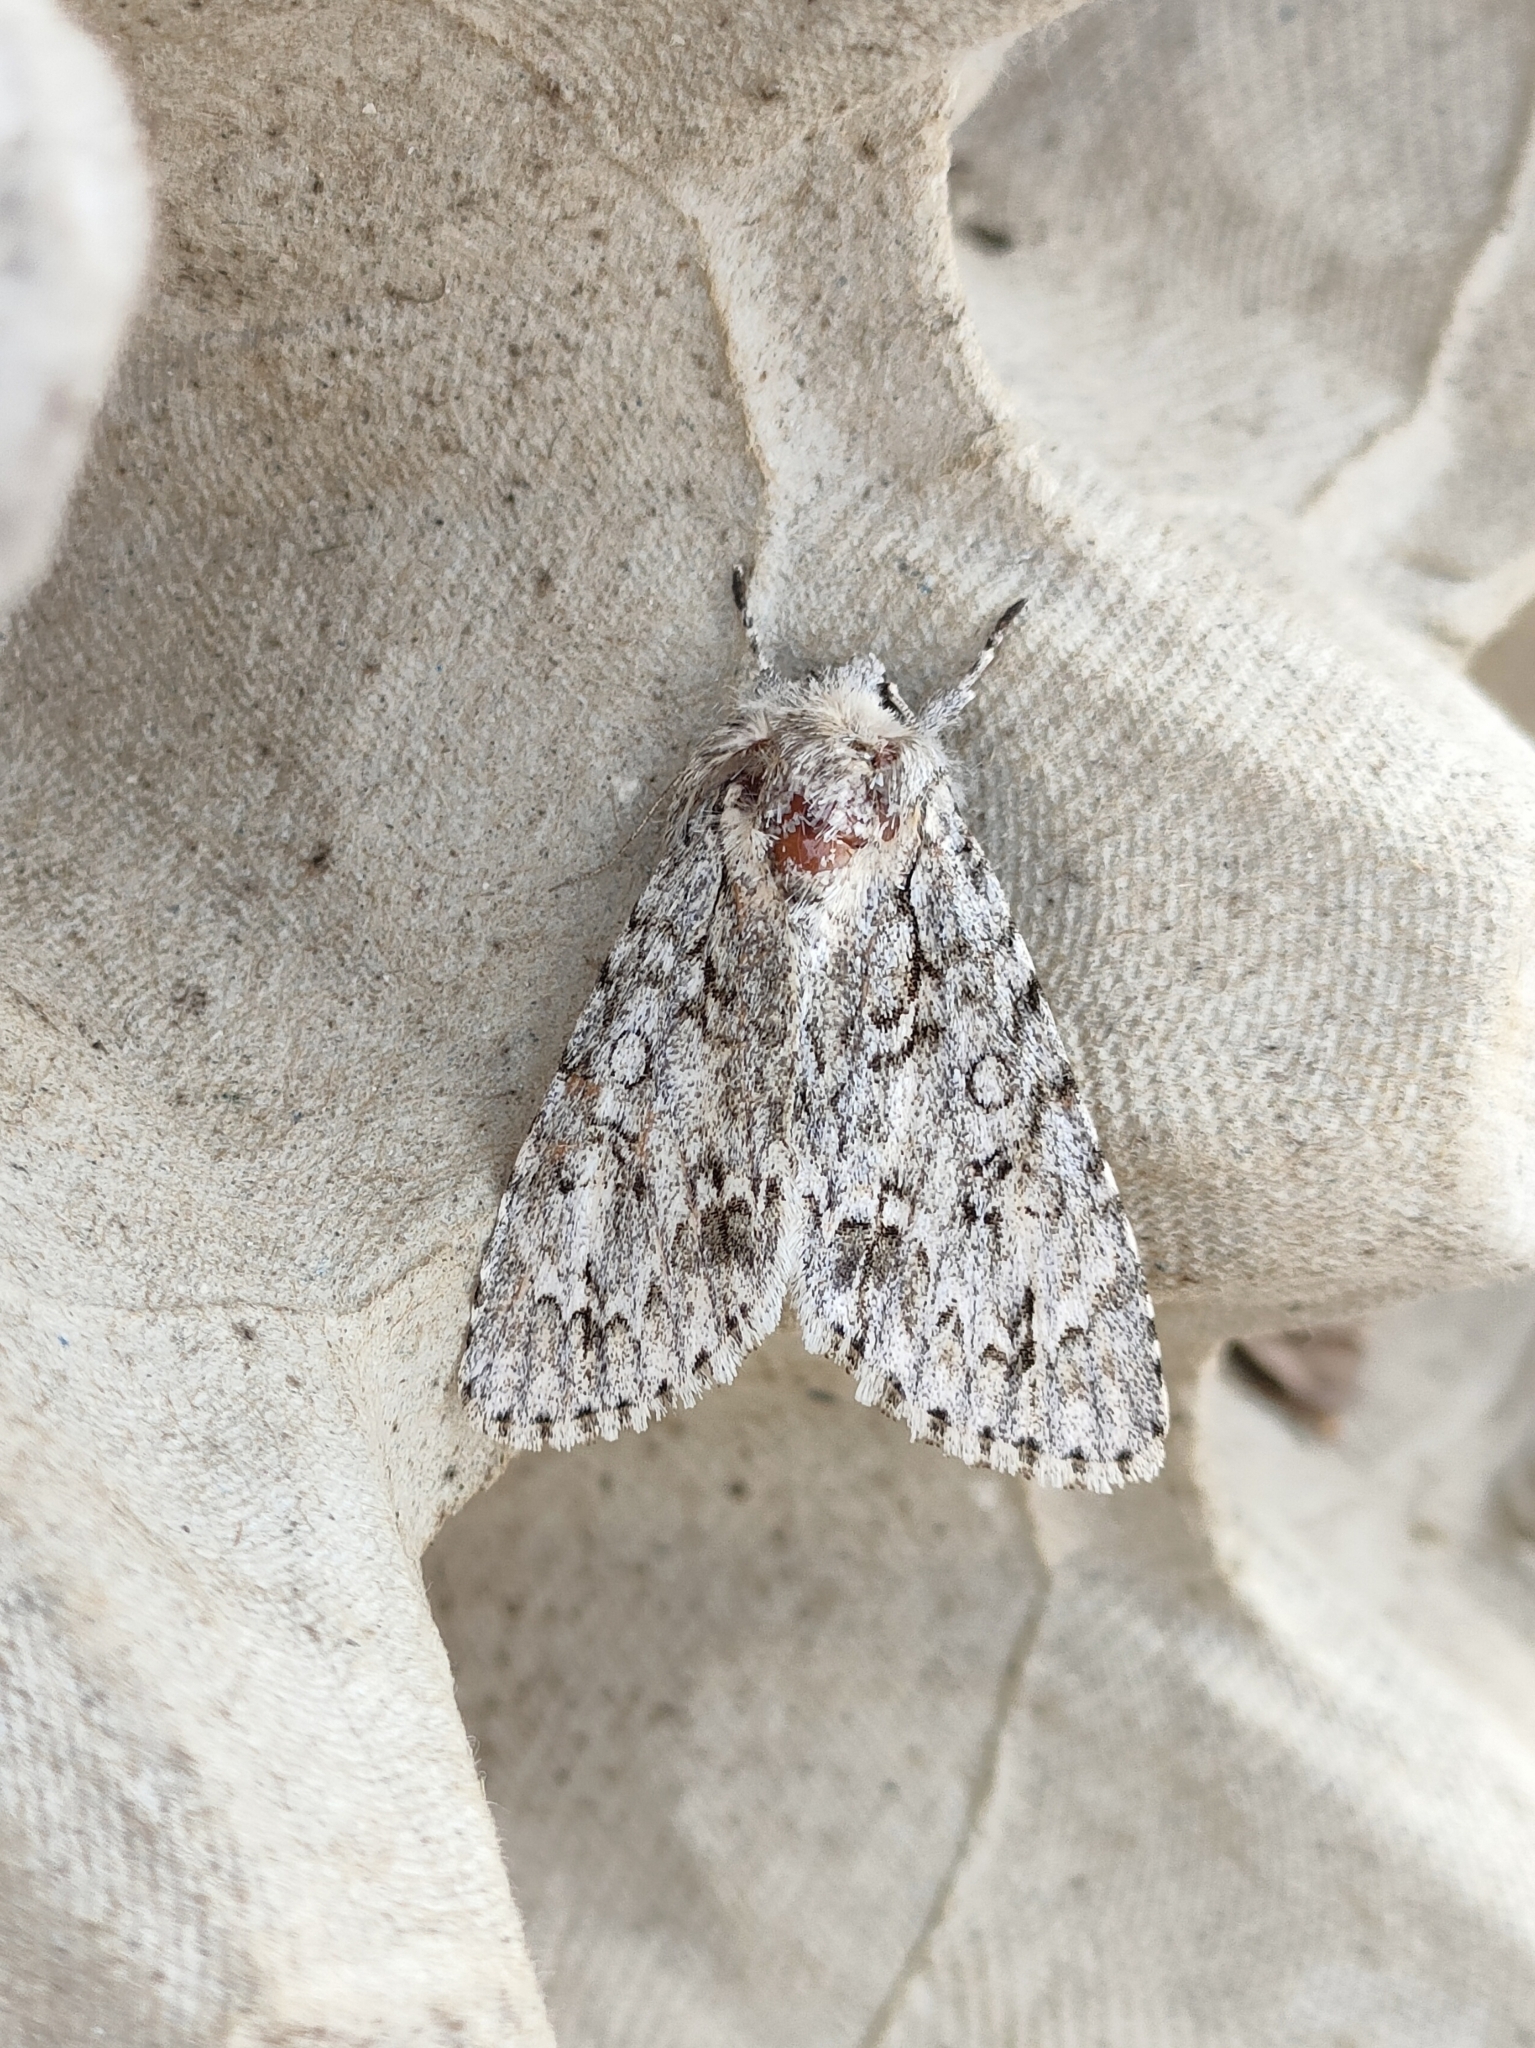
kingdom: Animalia
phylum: Arthropoda
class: Insecta
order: Lepidoptera
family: Noctuidae
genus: Acronicta
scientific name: Acronicta aceris
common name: Sycamore
